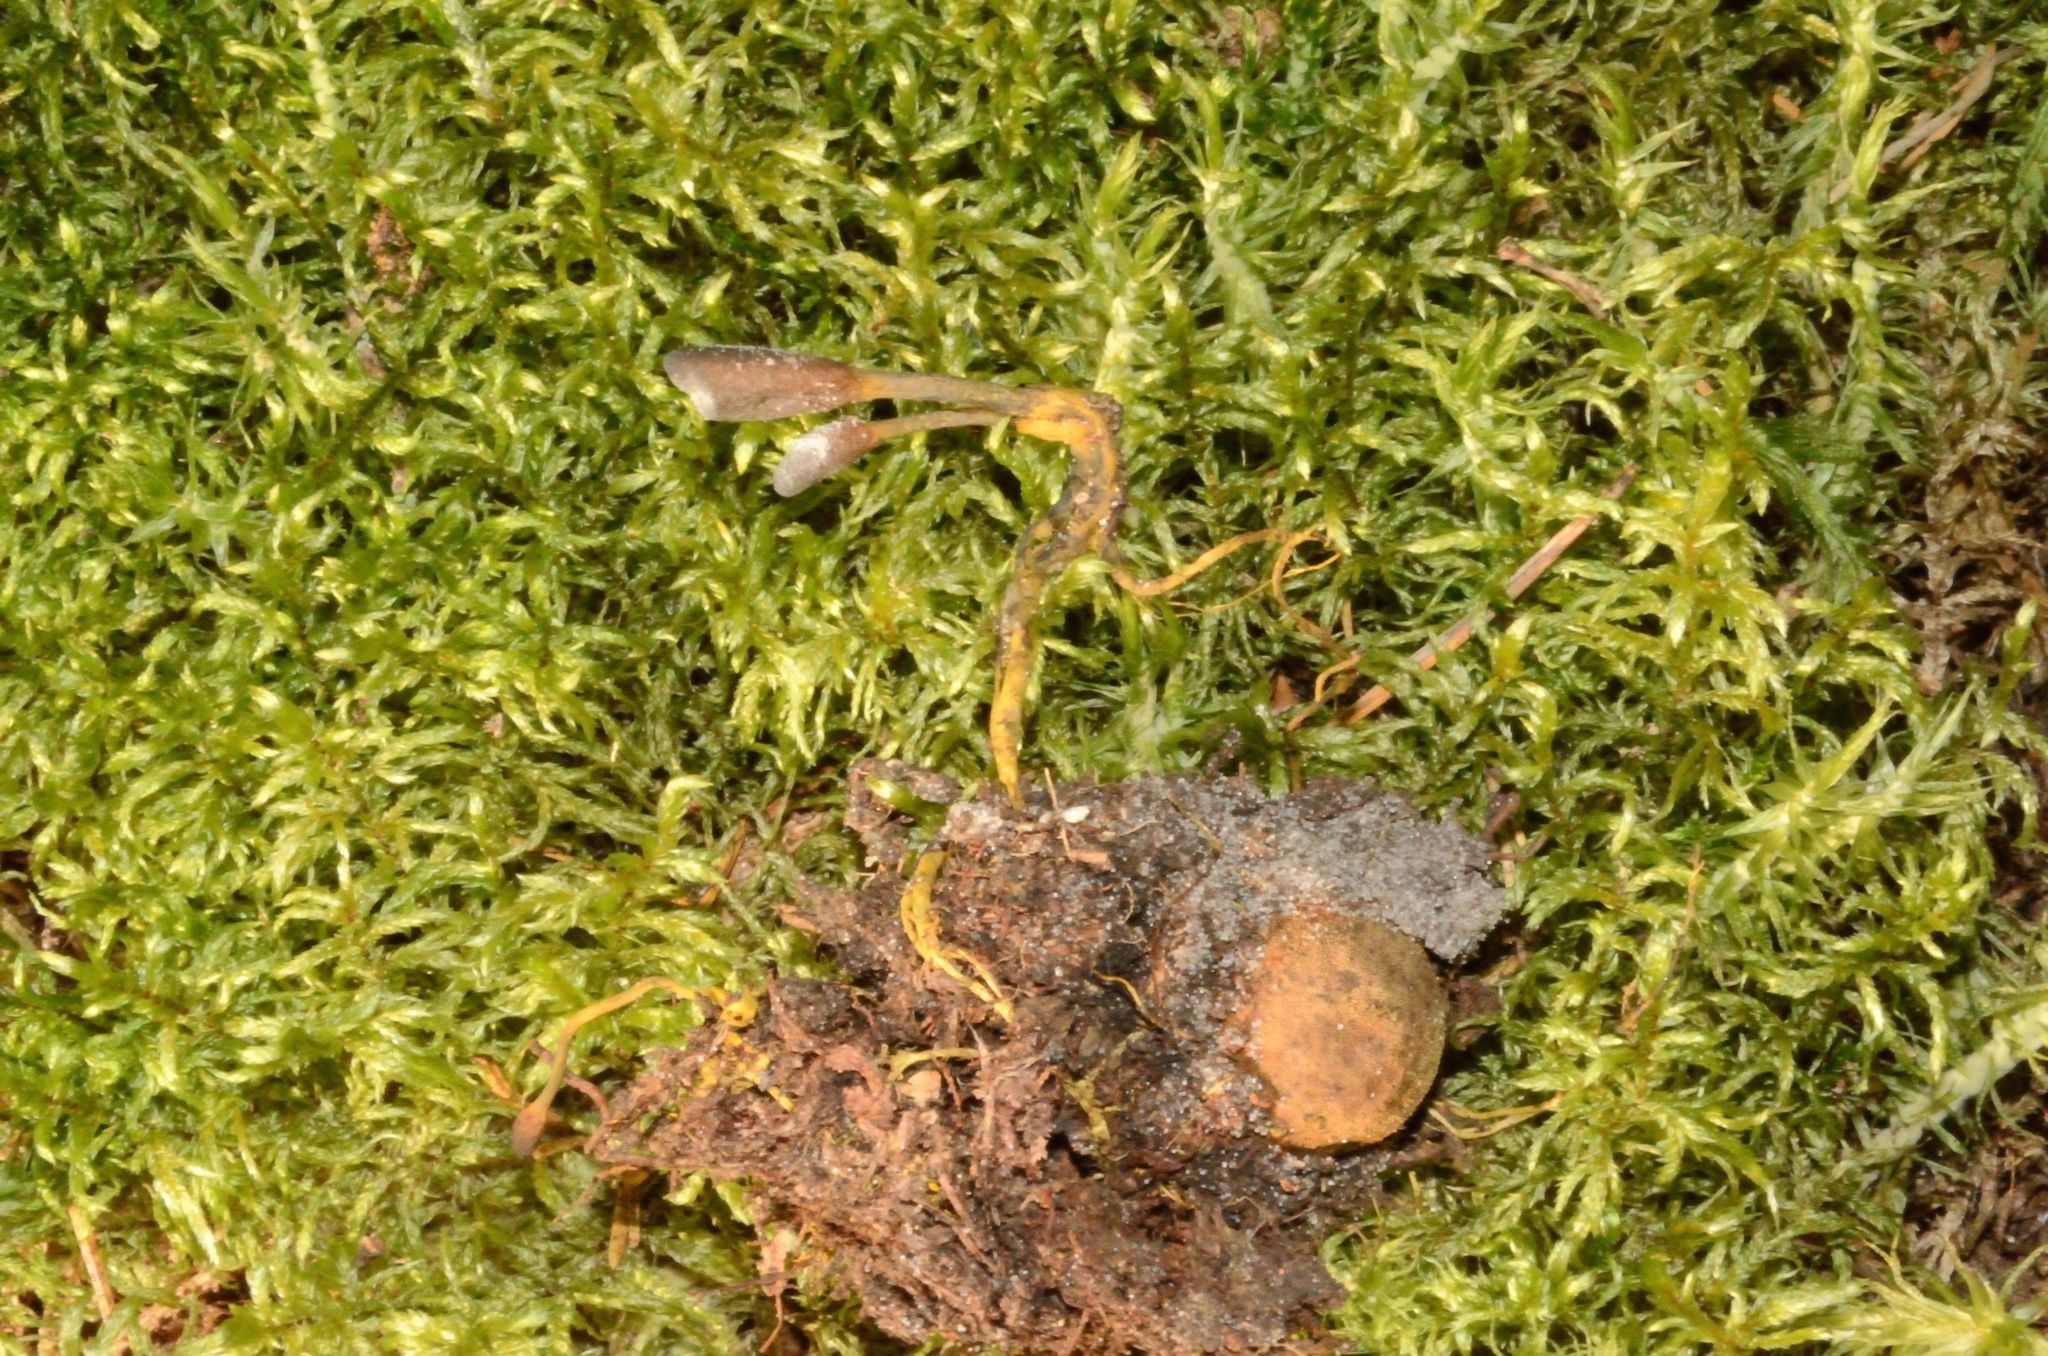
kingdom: Fungi
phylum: Ascomycota
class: Sordariomycetes
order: Hypocreales
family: Ophiocordycipitaceae
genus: Tolypocladium
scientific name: Tolypocladium ophioglossoides
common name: Snaketongue truffleclub
